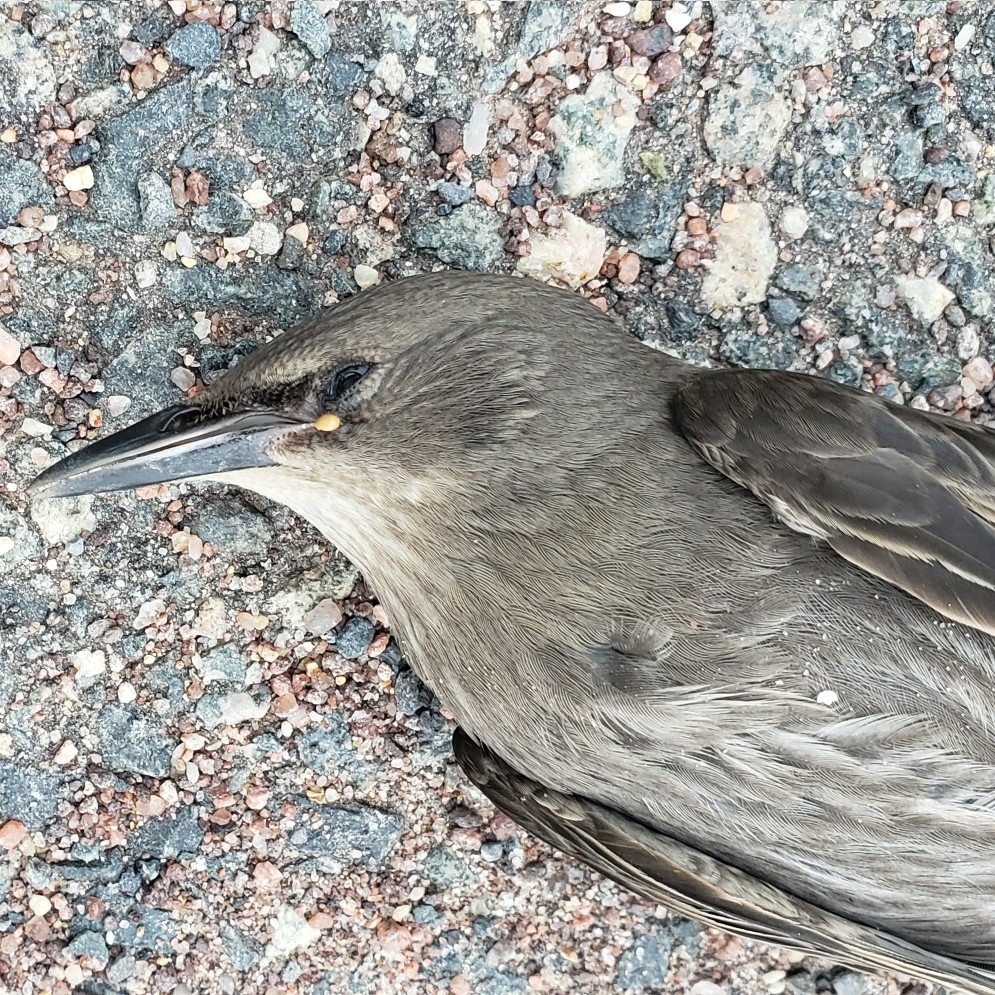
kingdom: Animalia
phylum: Chordata
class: Aves
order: Passeriformes
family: Sturnidae
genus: Sturnus
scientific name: Sturnus vulgaris
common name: Common starling
